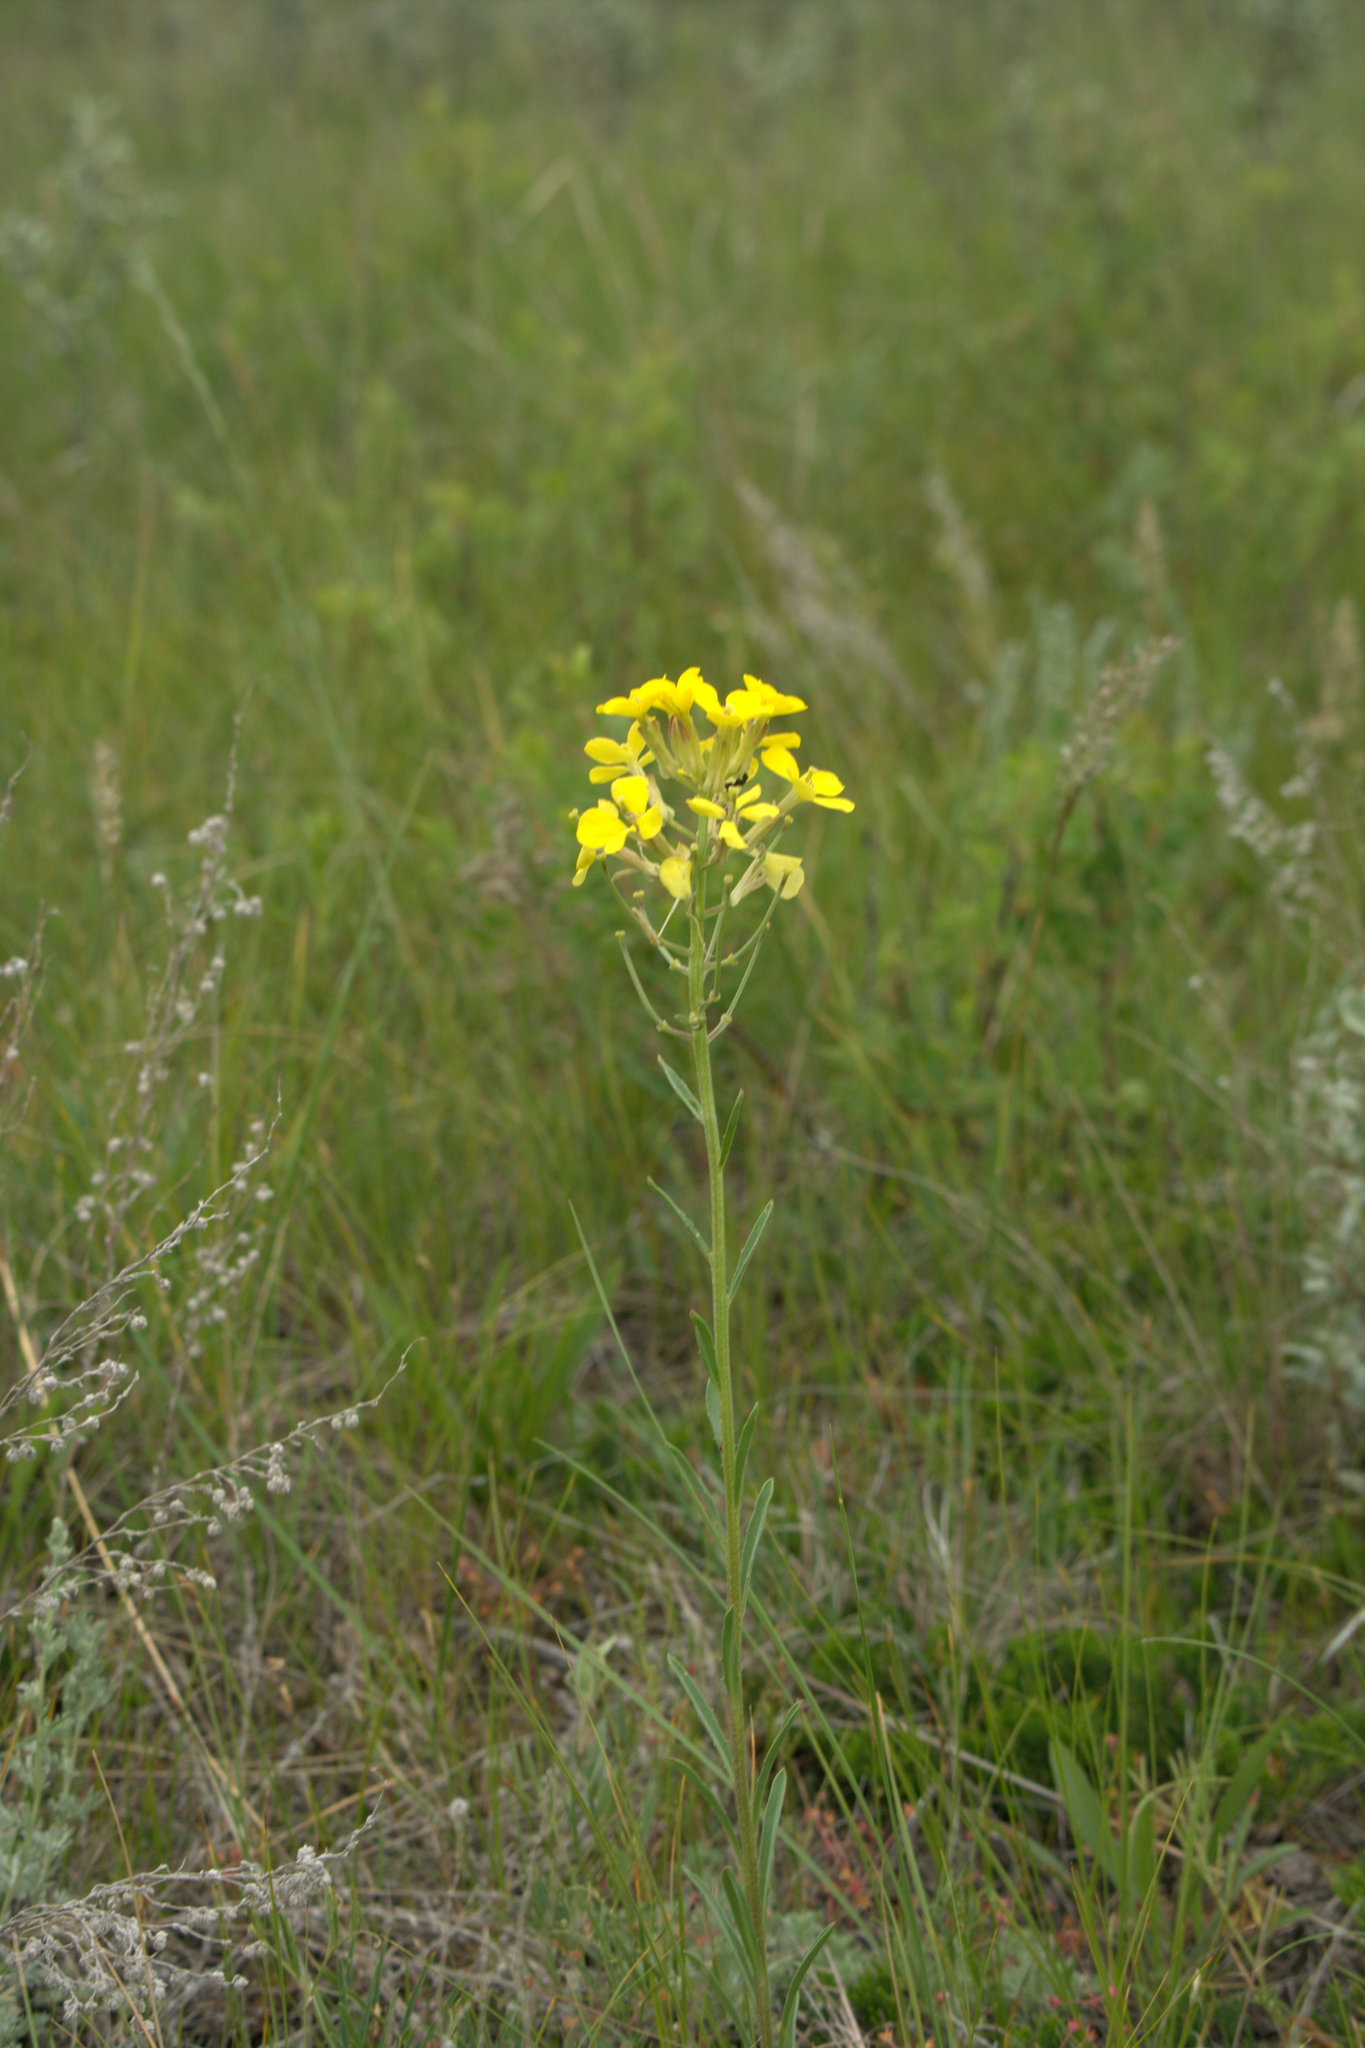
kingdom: Plantae
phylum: Tracheophyta
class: Magnoliopsida
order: Brassicales
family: Brassicaceae
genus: Erysimum
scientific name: Erysimum inconspicuum
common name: Shy wallflower
